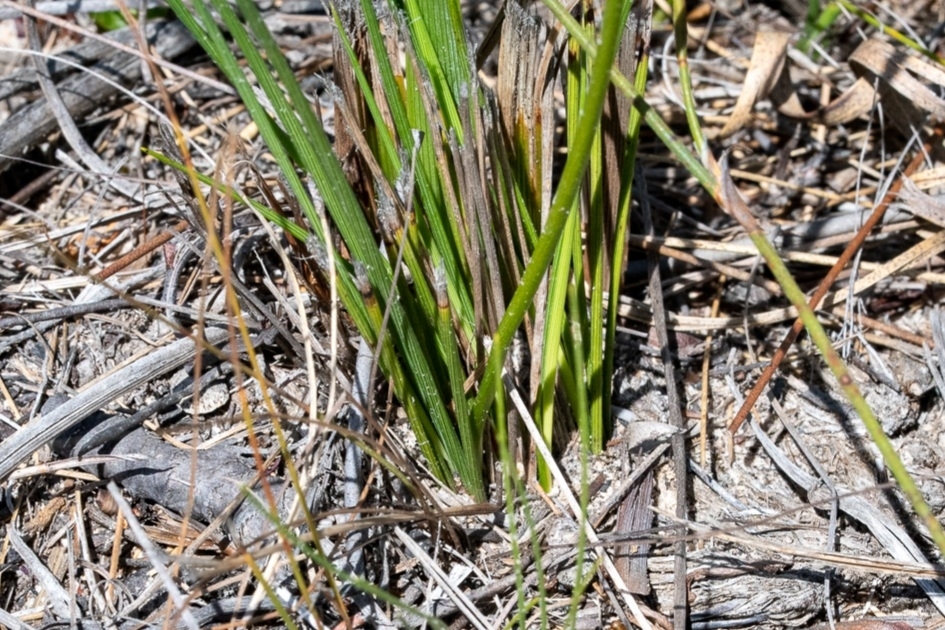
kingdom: Plantae
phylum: Tracheophyta
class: Liliopsida
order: Asparagales
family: Iridaceae
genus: Aristea
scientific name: Aristea juncifolia
